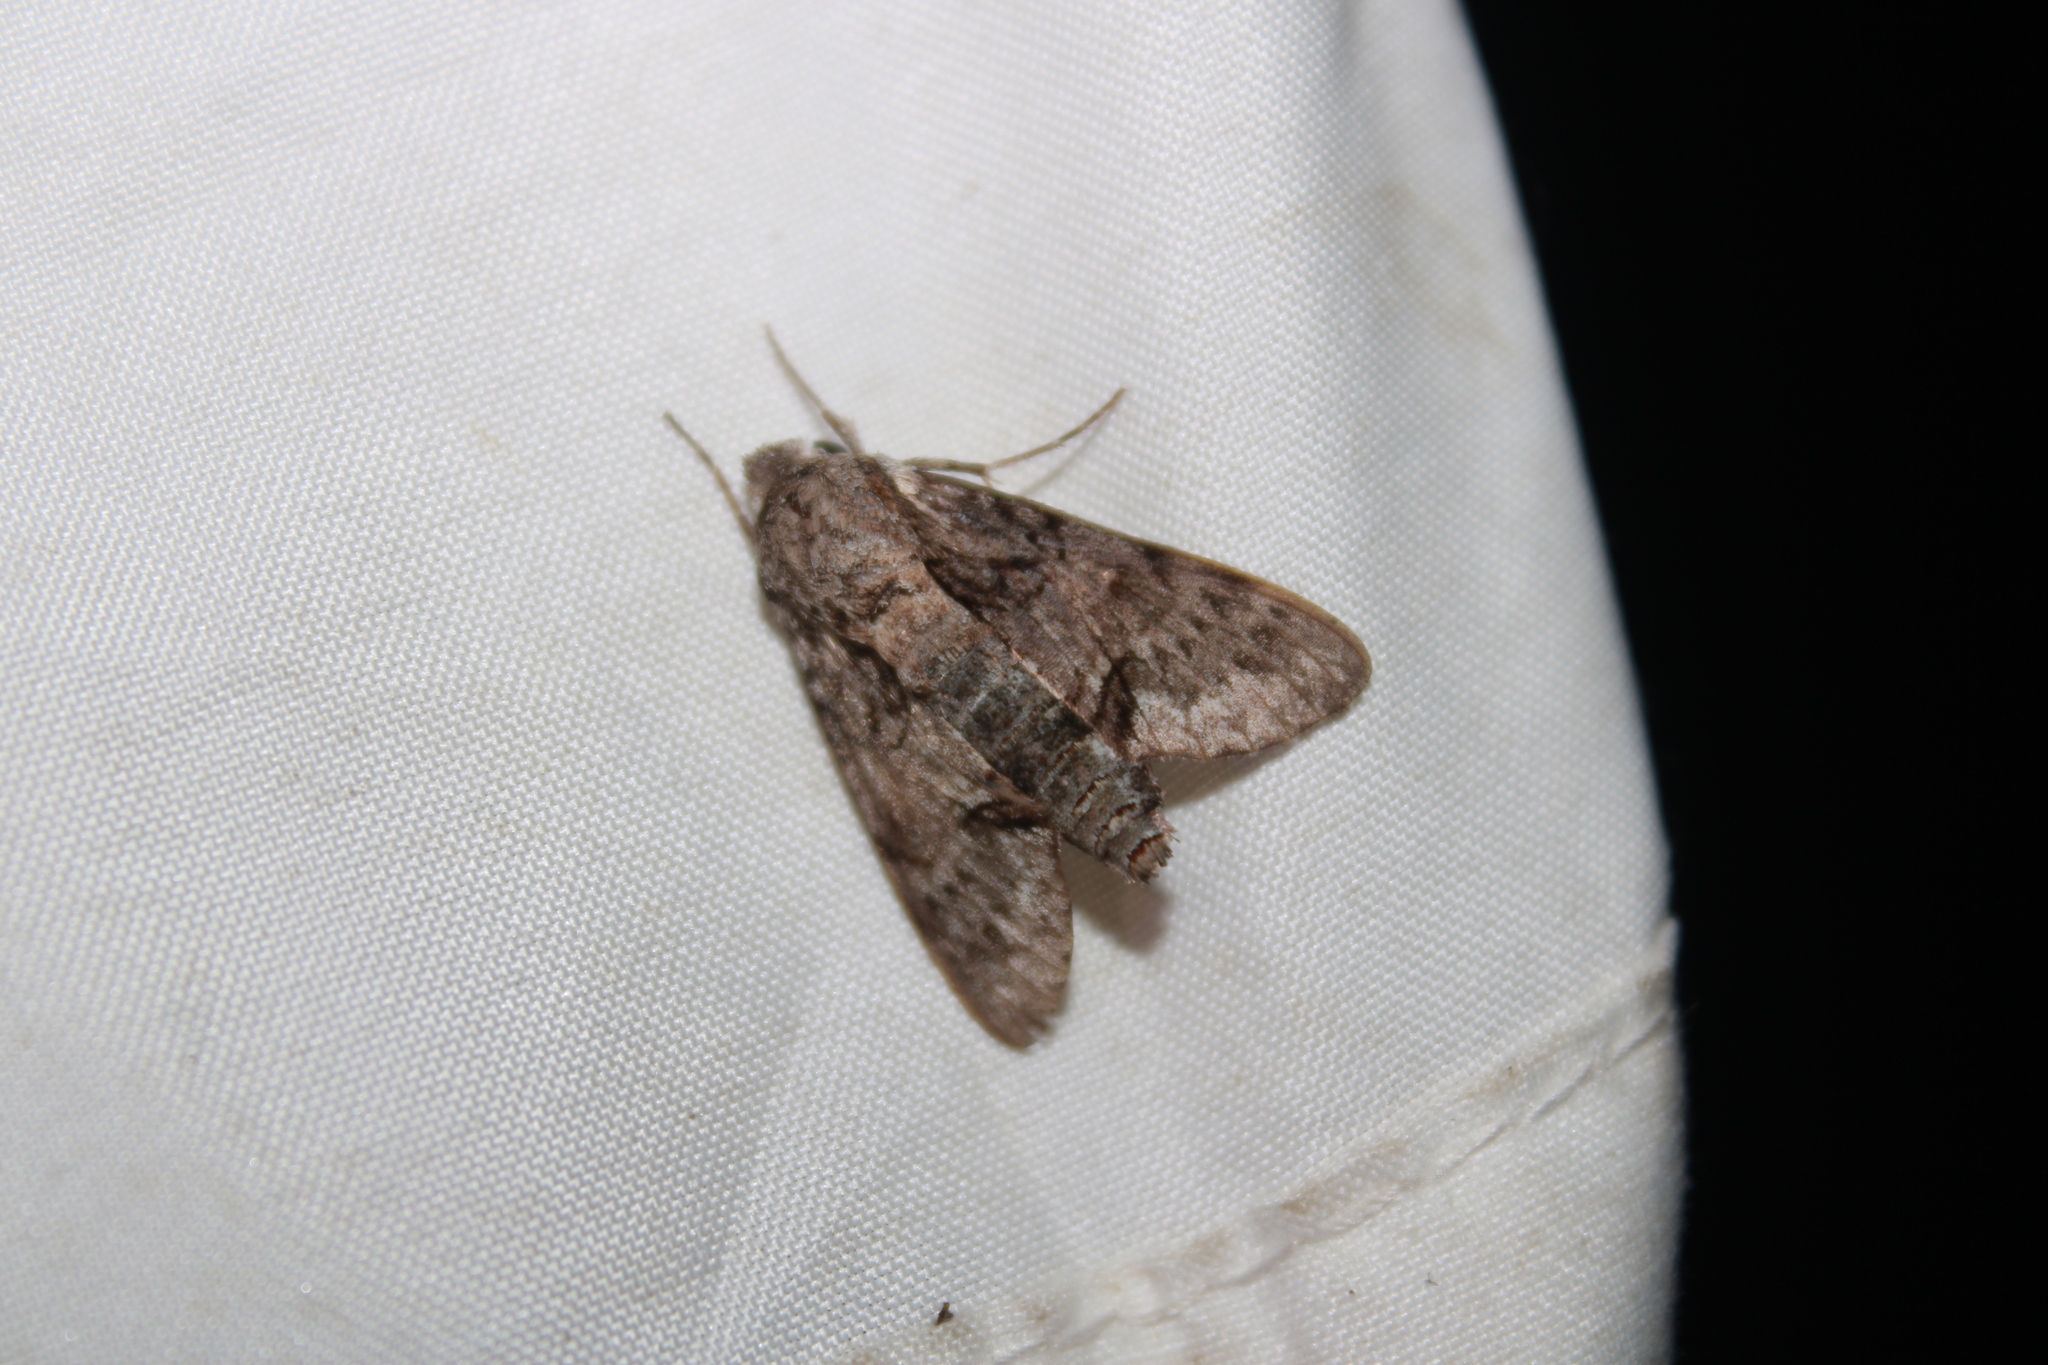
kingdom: Animalia
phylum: Arthropoda
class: Insecta
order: Lepidoptera
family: Sphingidae
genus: Cautethia
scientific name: Cautethia grotei
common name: Grote's sphinx
